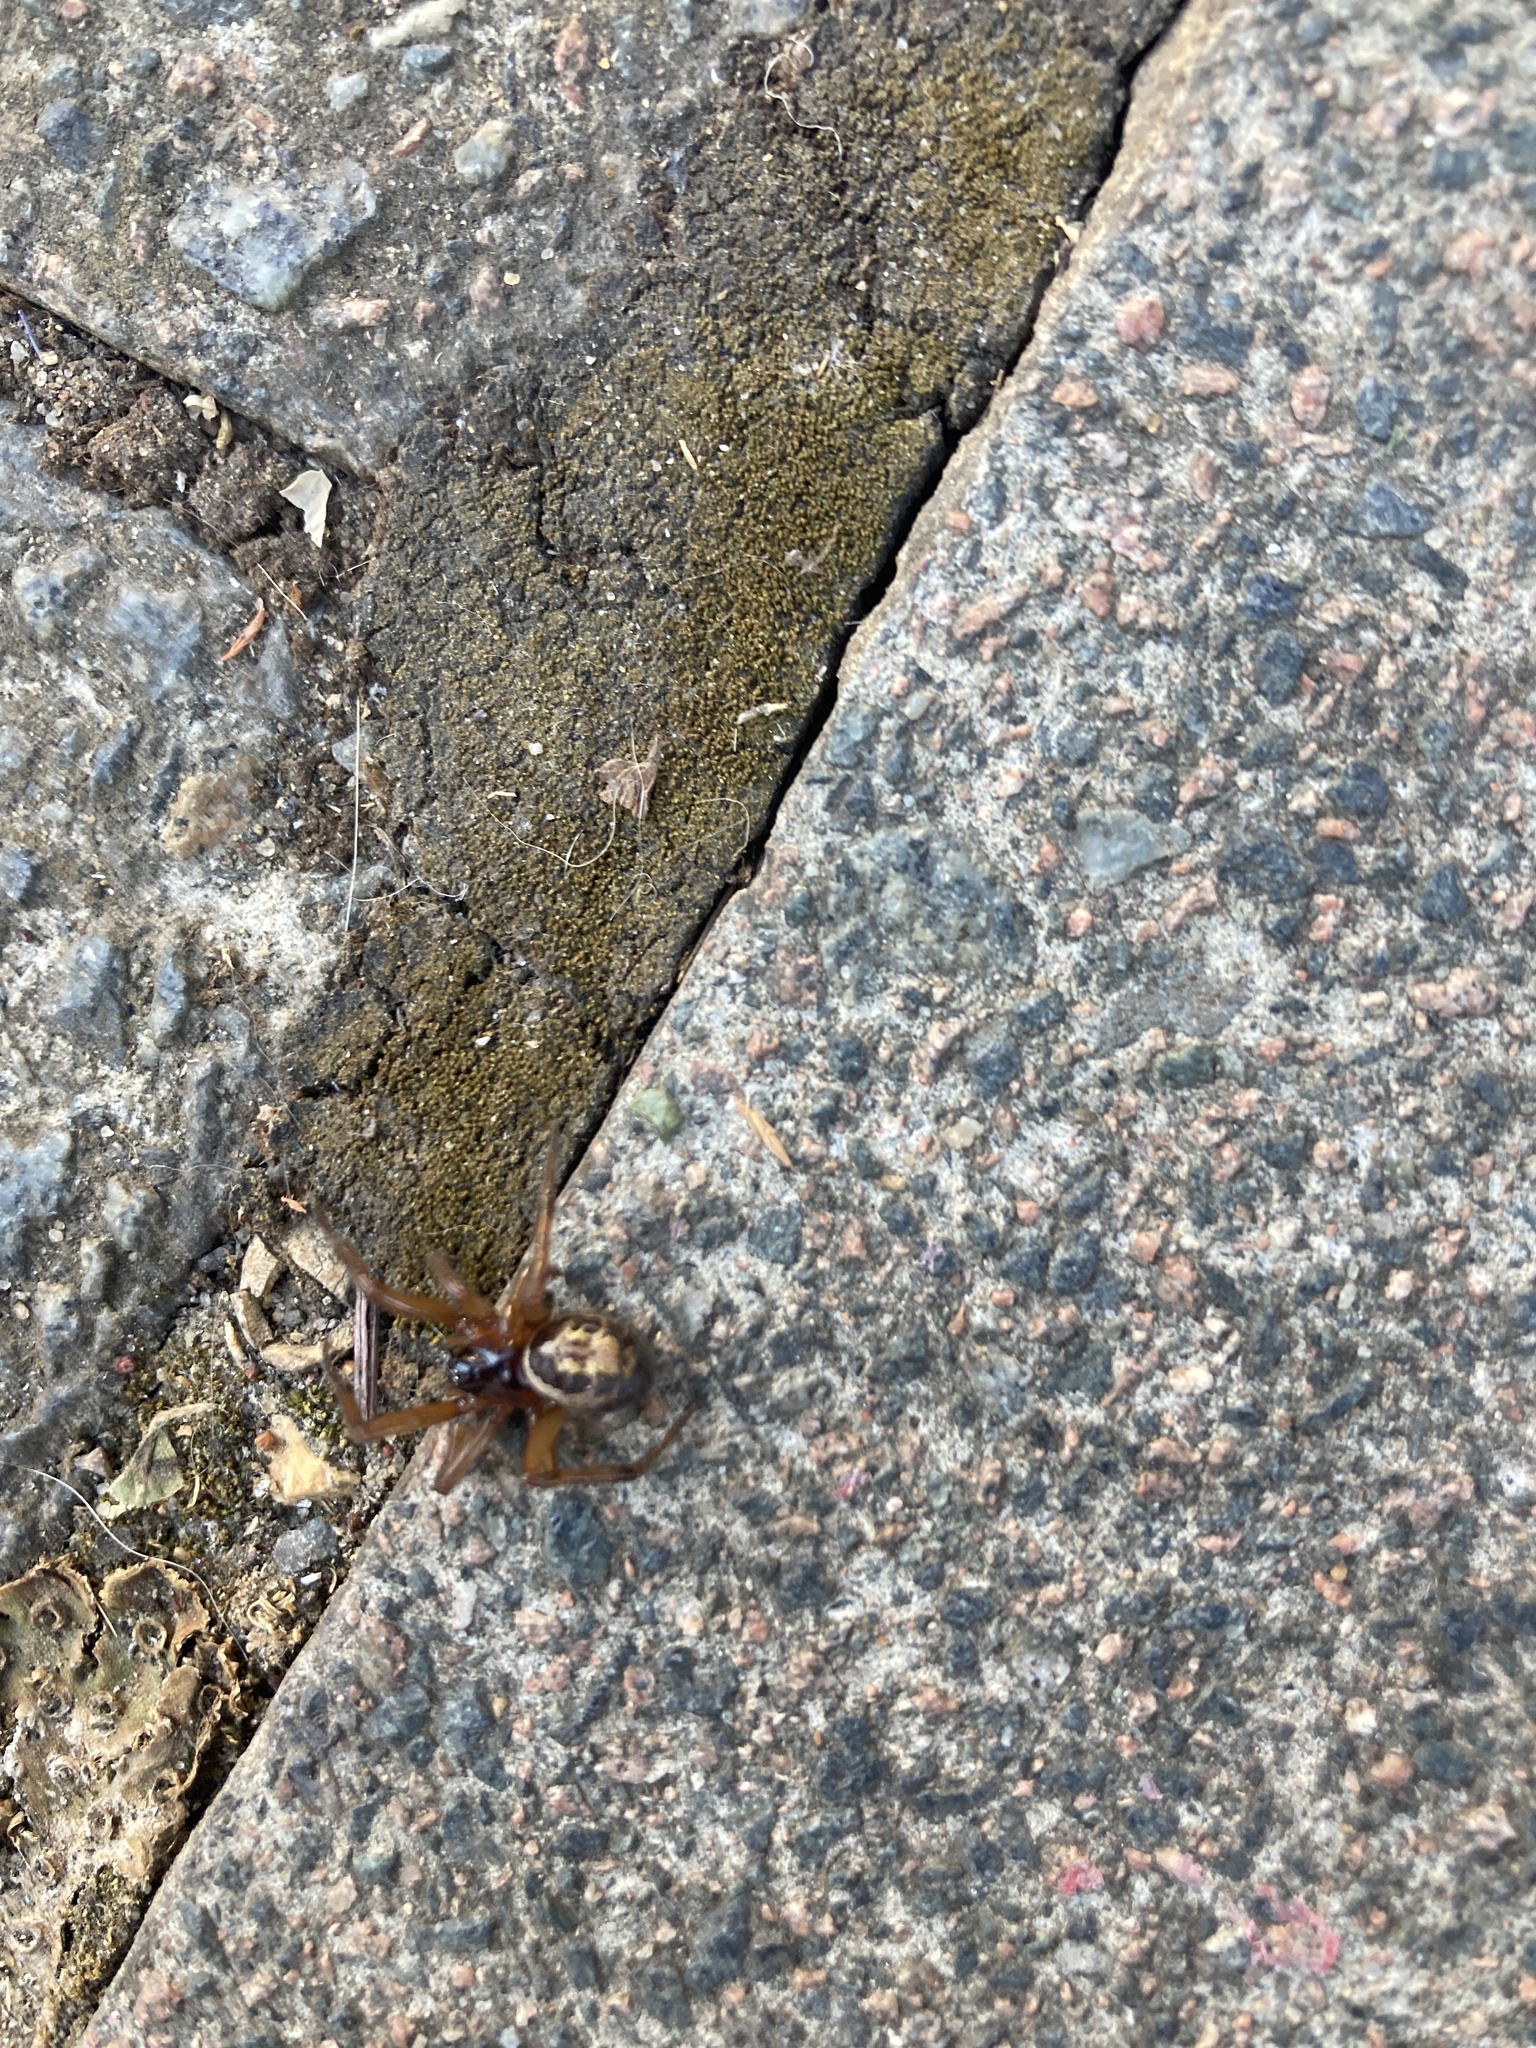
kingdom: Animalia
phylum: Arthropoda
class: Arachnida
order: Araneae
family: Theridiidae
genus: Steatoda
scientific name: Steatoda nobilis
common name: Cobweb weaver
